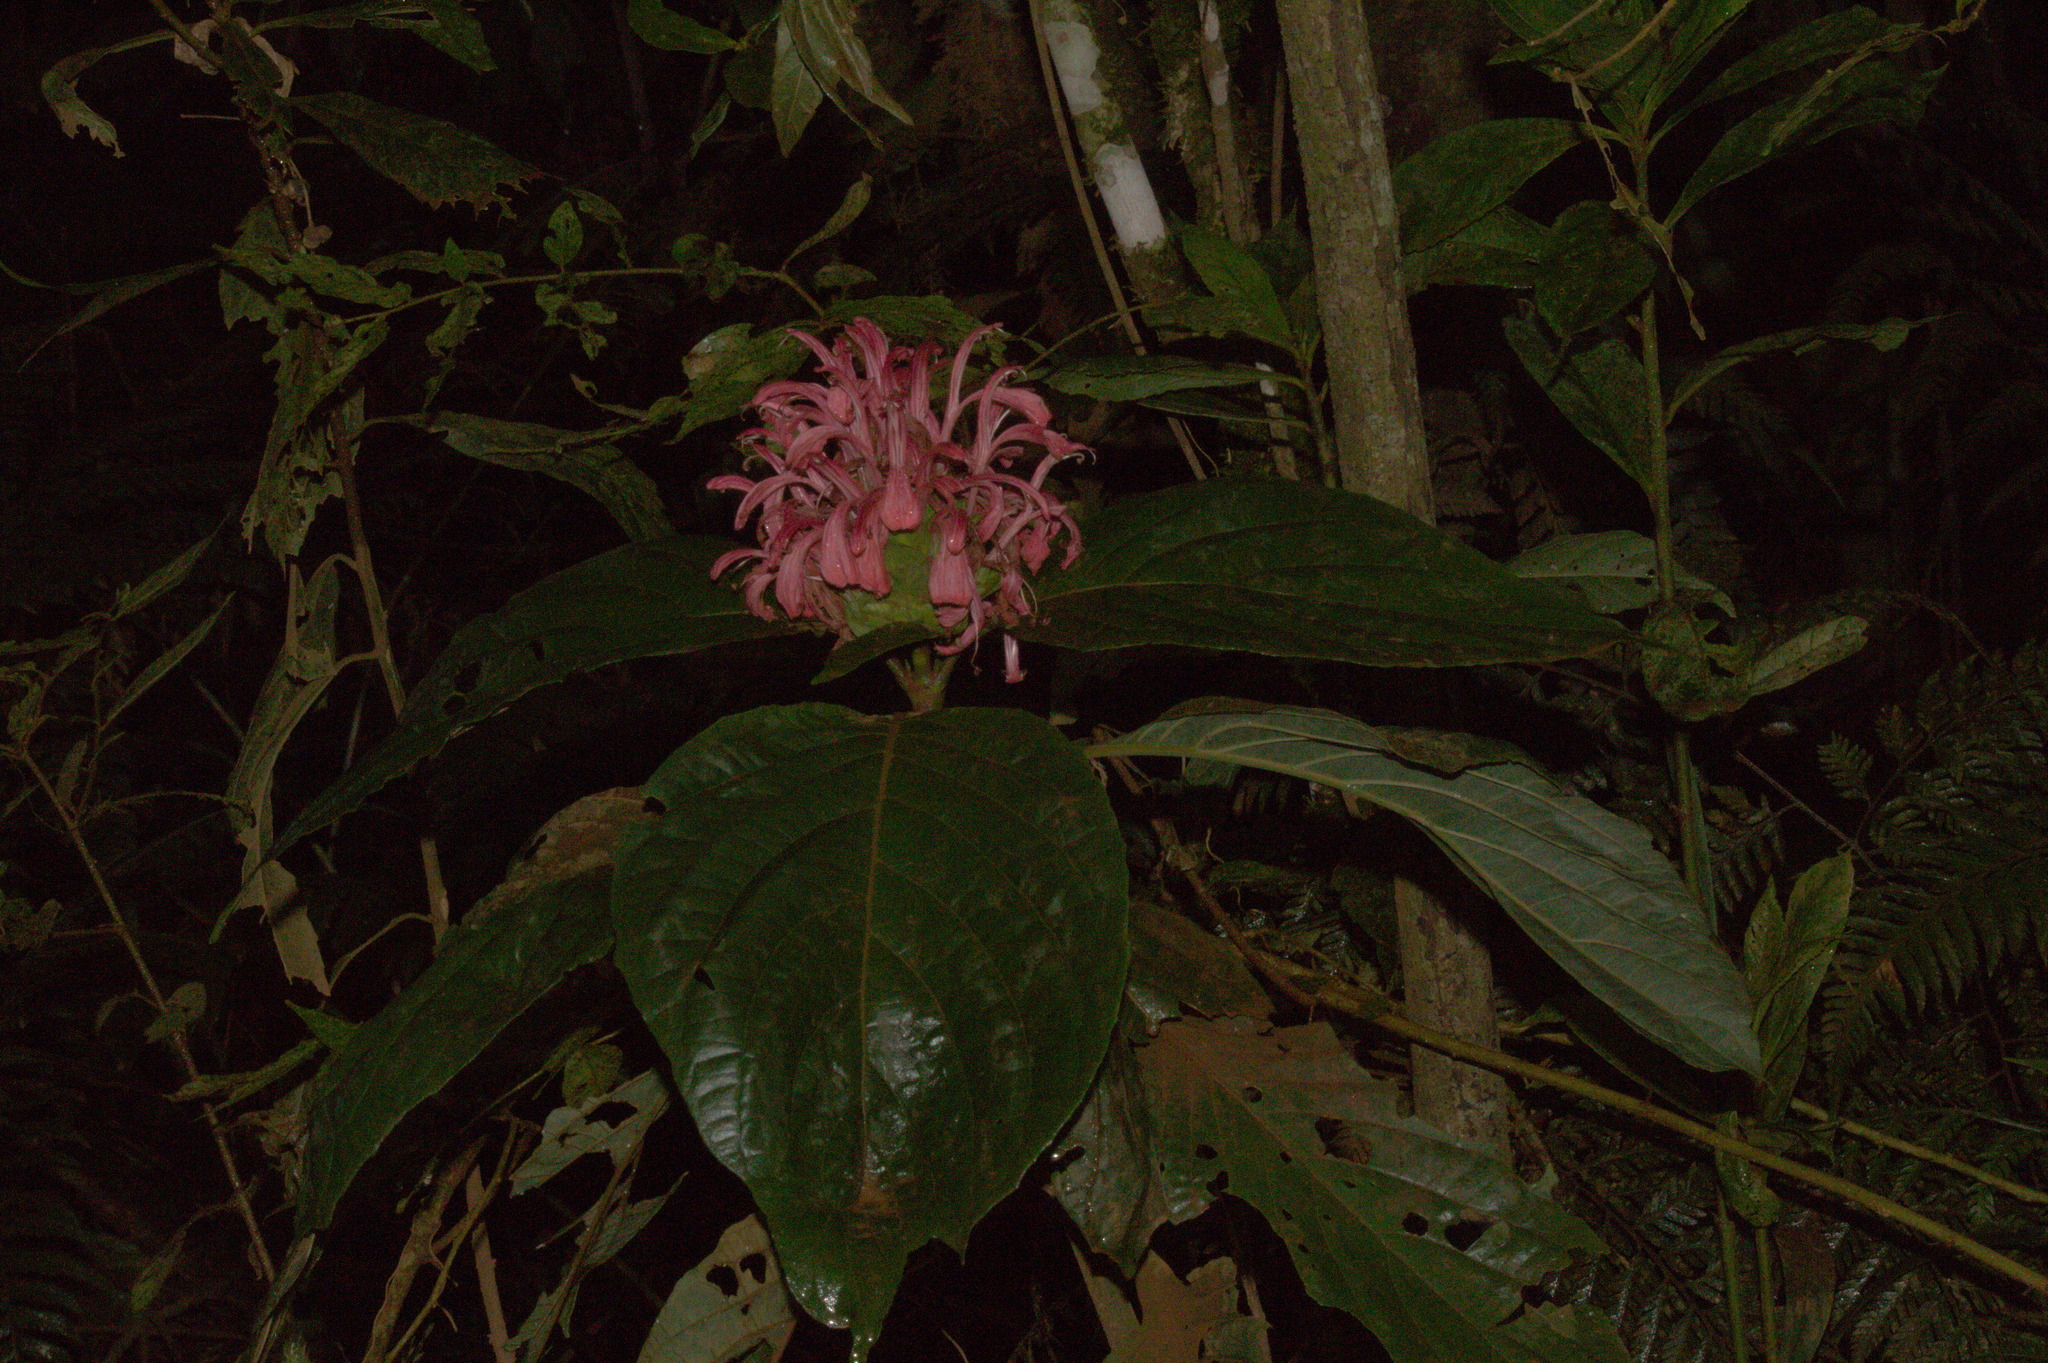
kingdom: Plantae
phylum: Tracheophyta
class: Magnoliopsida
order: Lamiales
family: Acanthaceae
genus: Justicia
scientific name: Justicia carnea
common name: Brazilian-plume
